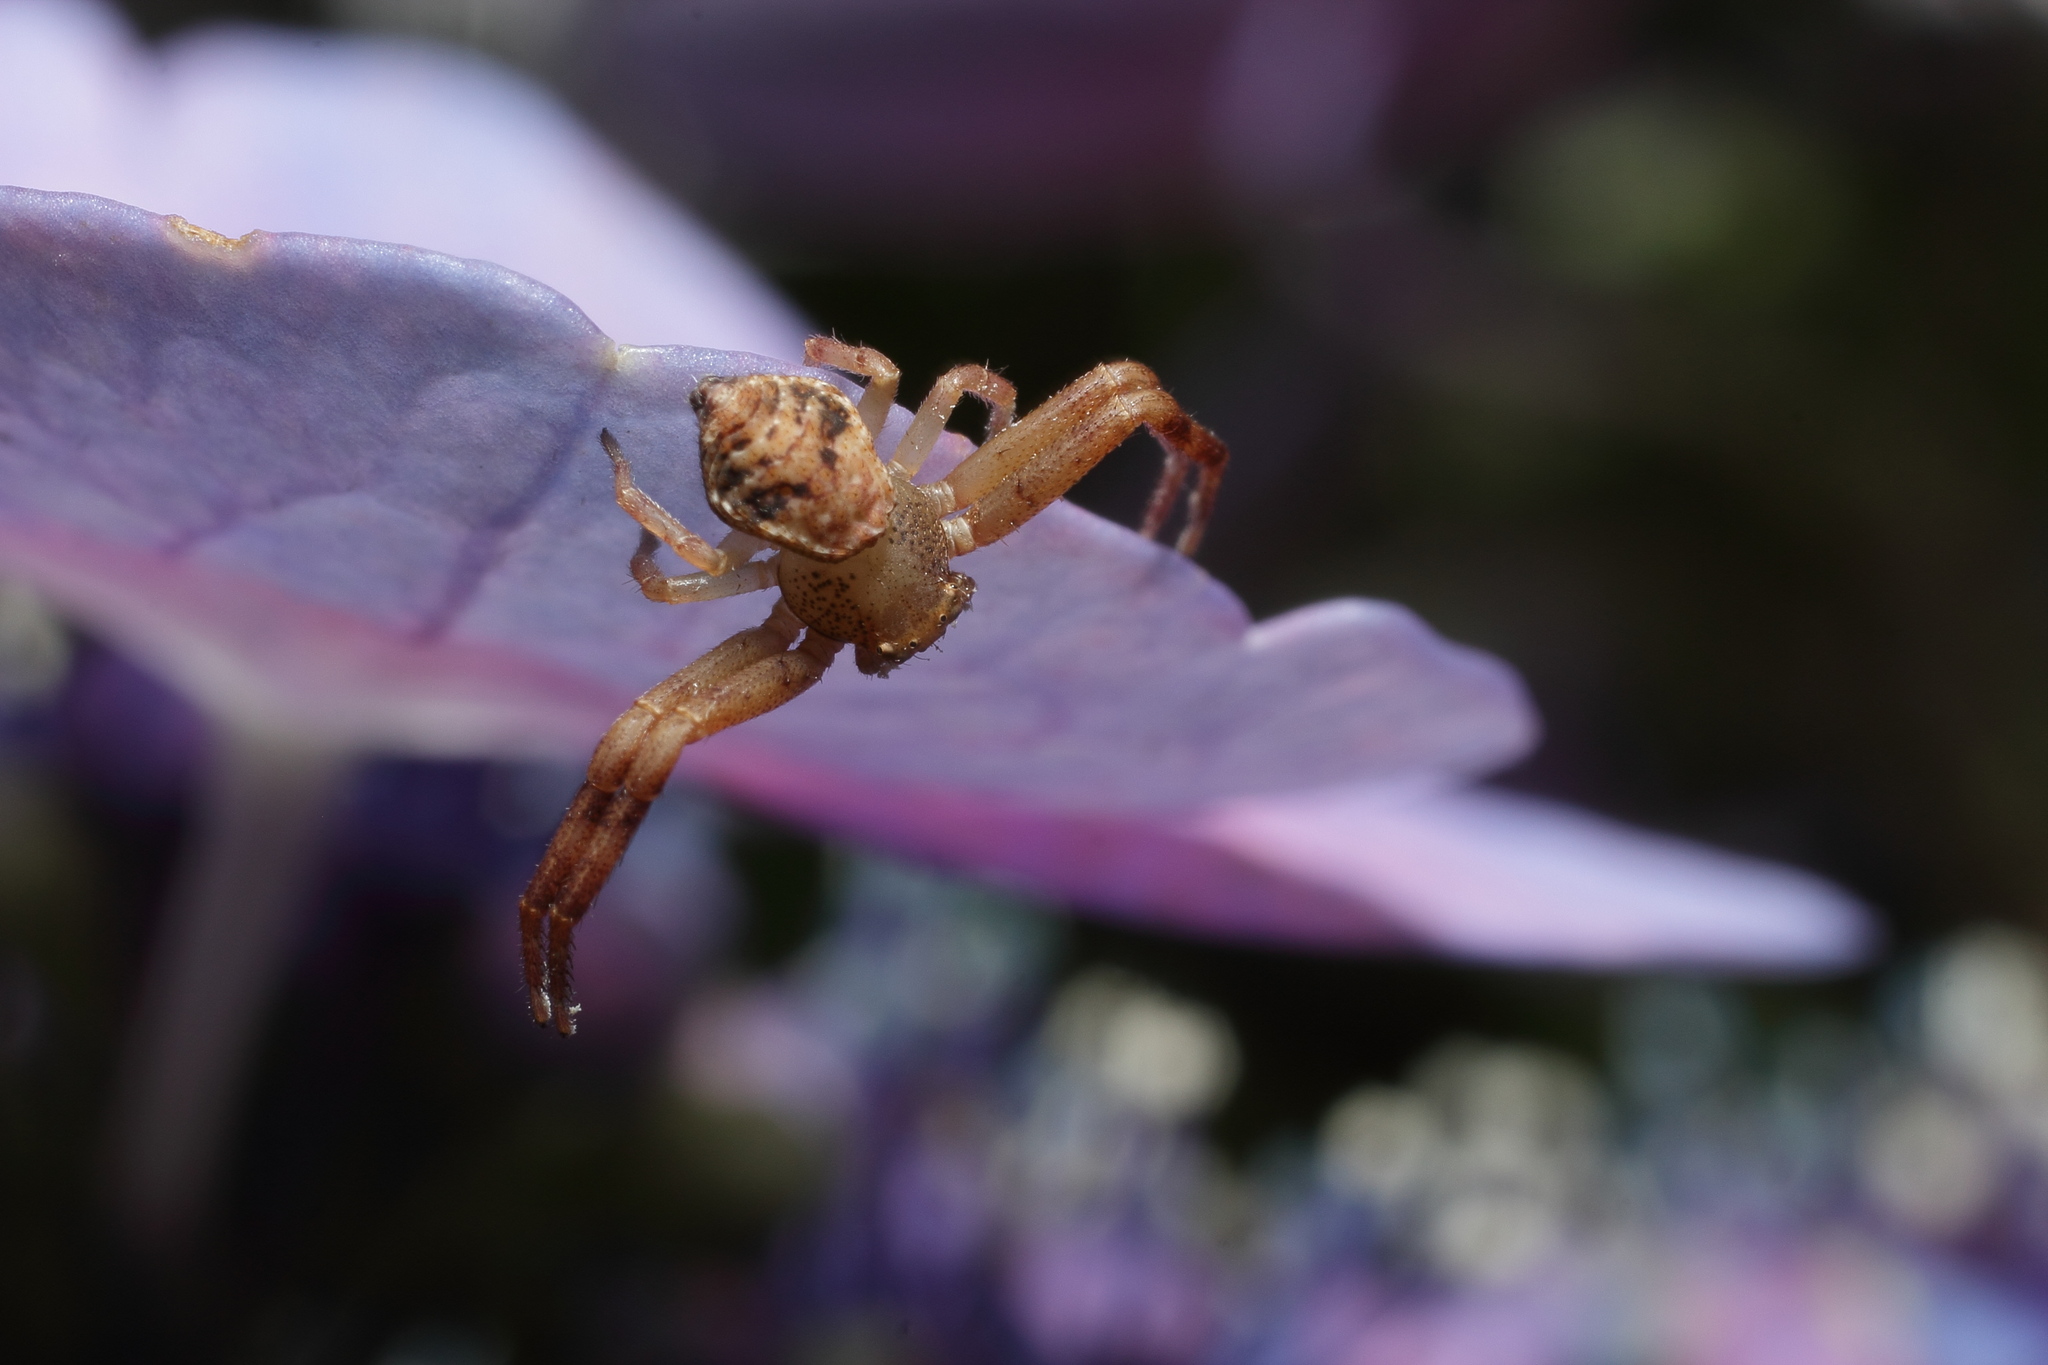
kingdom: Animalia
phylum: Arthropoda
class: Arachnida
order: Araneae
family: Thomisidae
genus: Ebelingia
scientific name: Ebelingia kumadai
